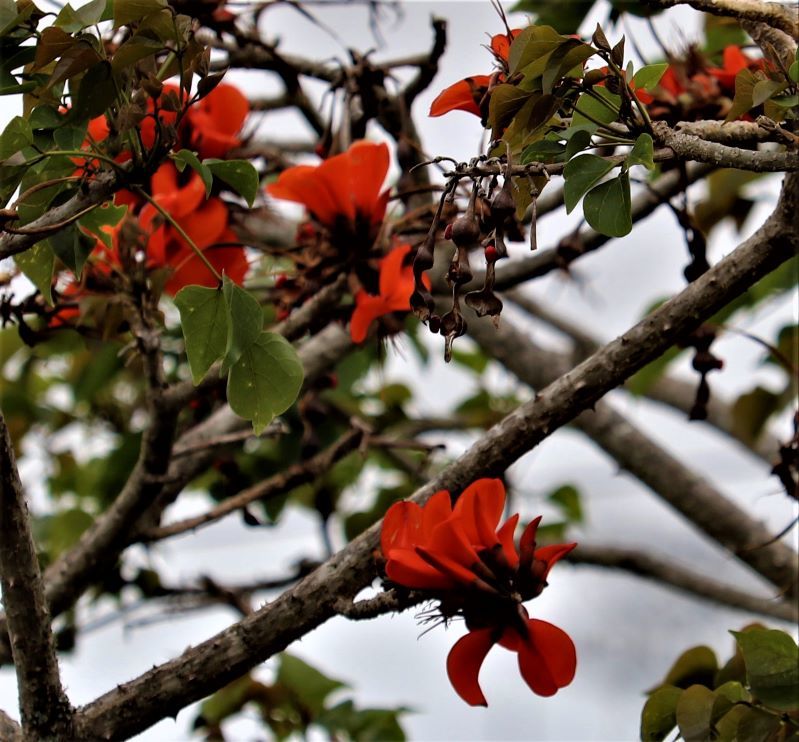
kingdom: Plantae
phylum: Tracheophyta
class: Magnoliopsida
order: Fabales
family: Fabaceae
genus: Erythrina
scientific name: Erythrina caffra
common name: Coast coral tree
